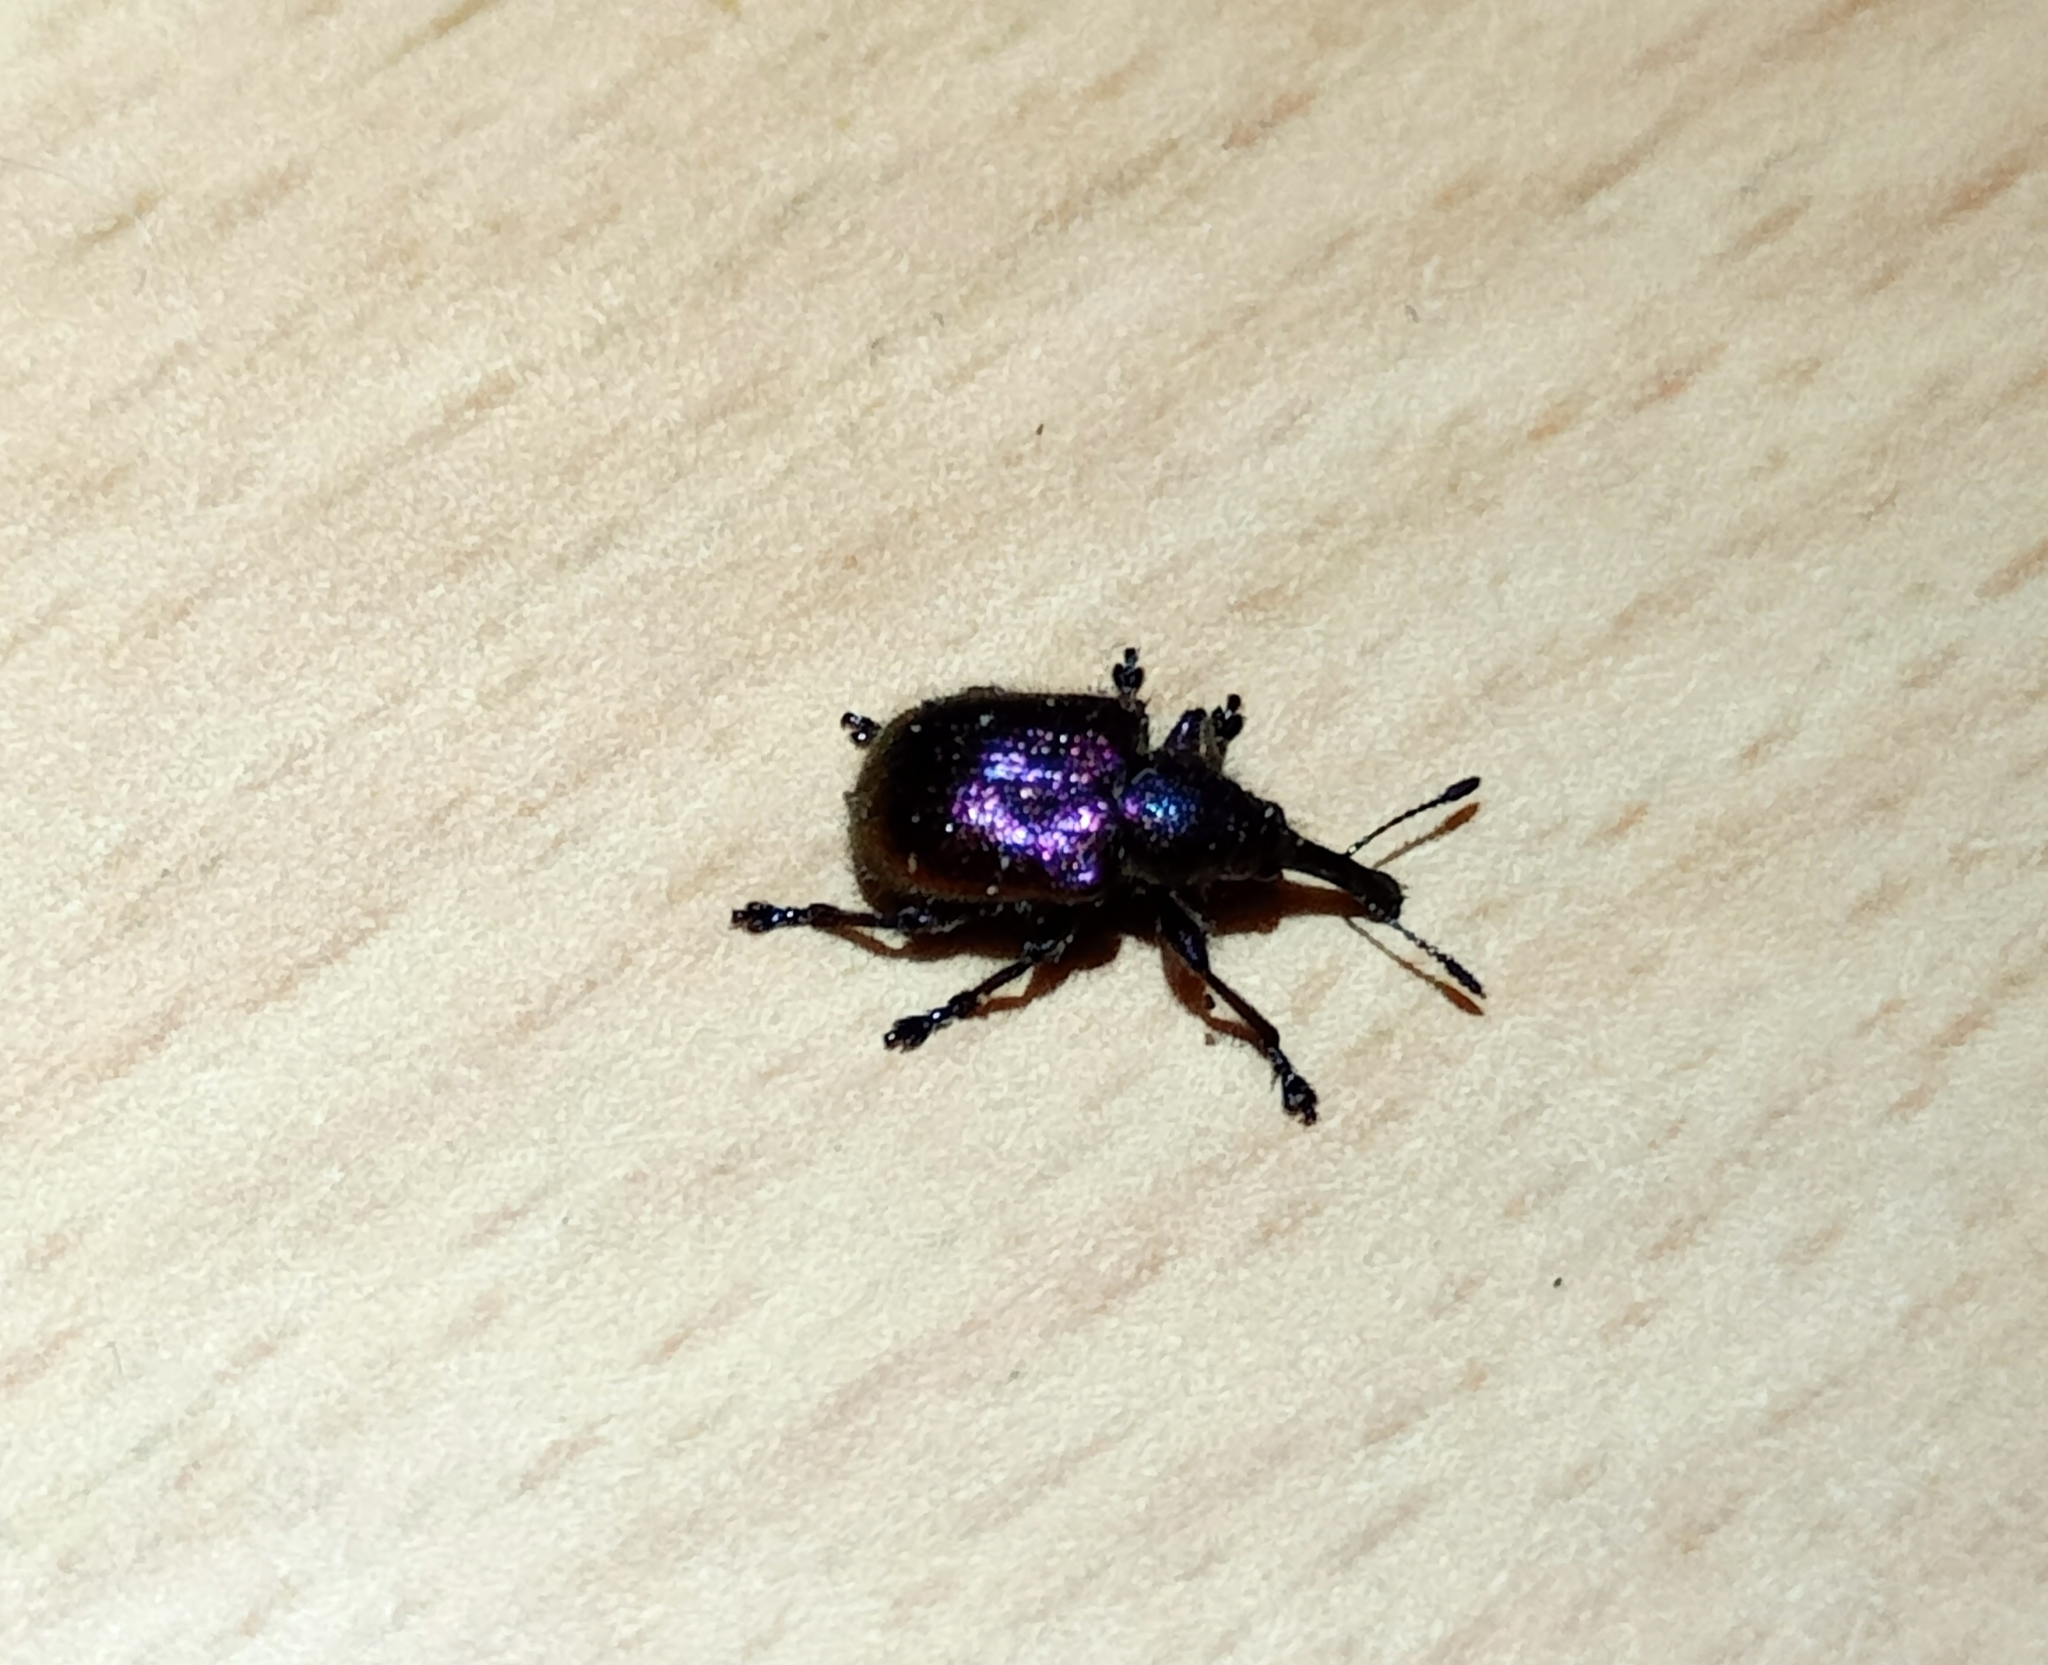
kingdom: Animalia
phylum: Arthropoda
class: Insecta
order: Coleoptera
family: Attelabidae
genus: Rhynchites
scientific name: Rhynchites bacchus
